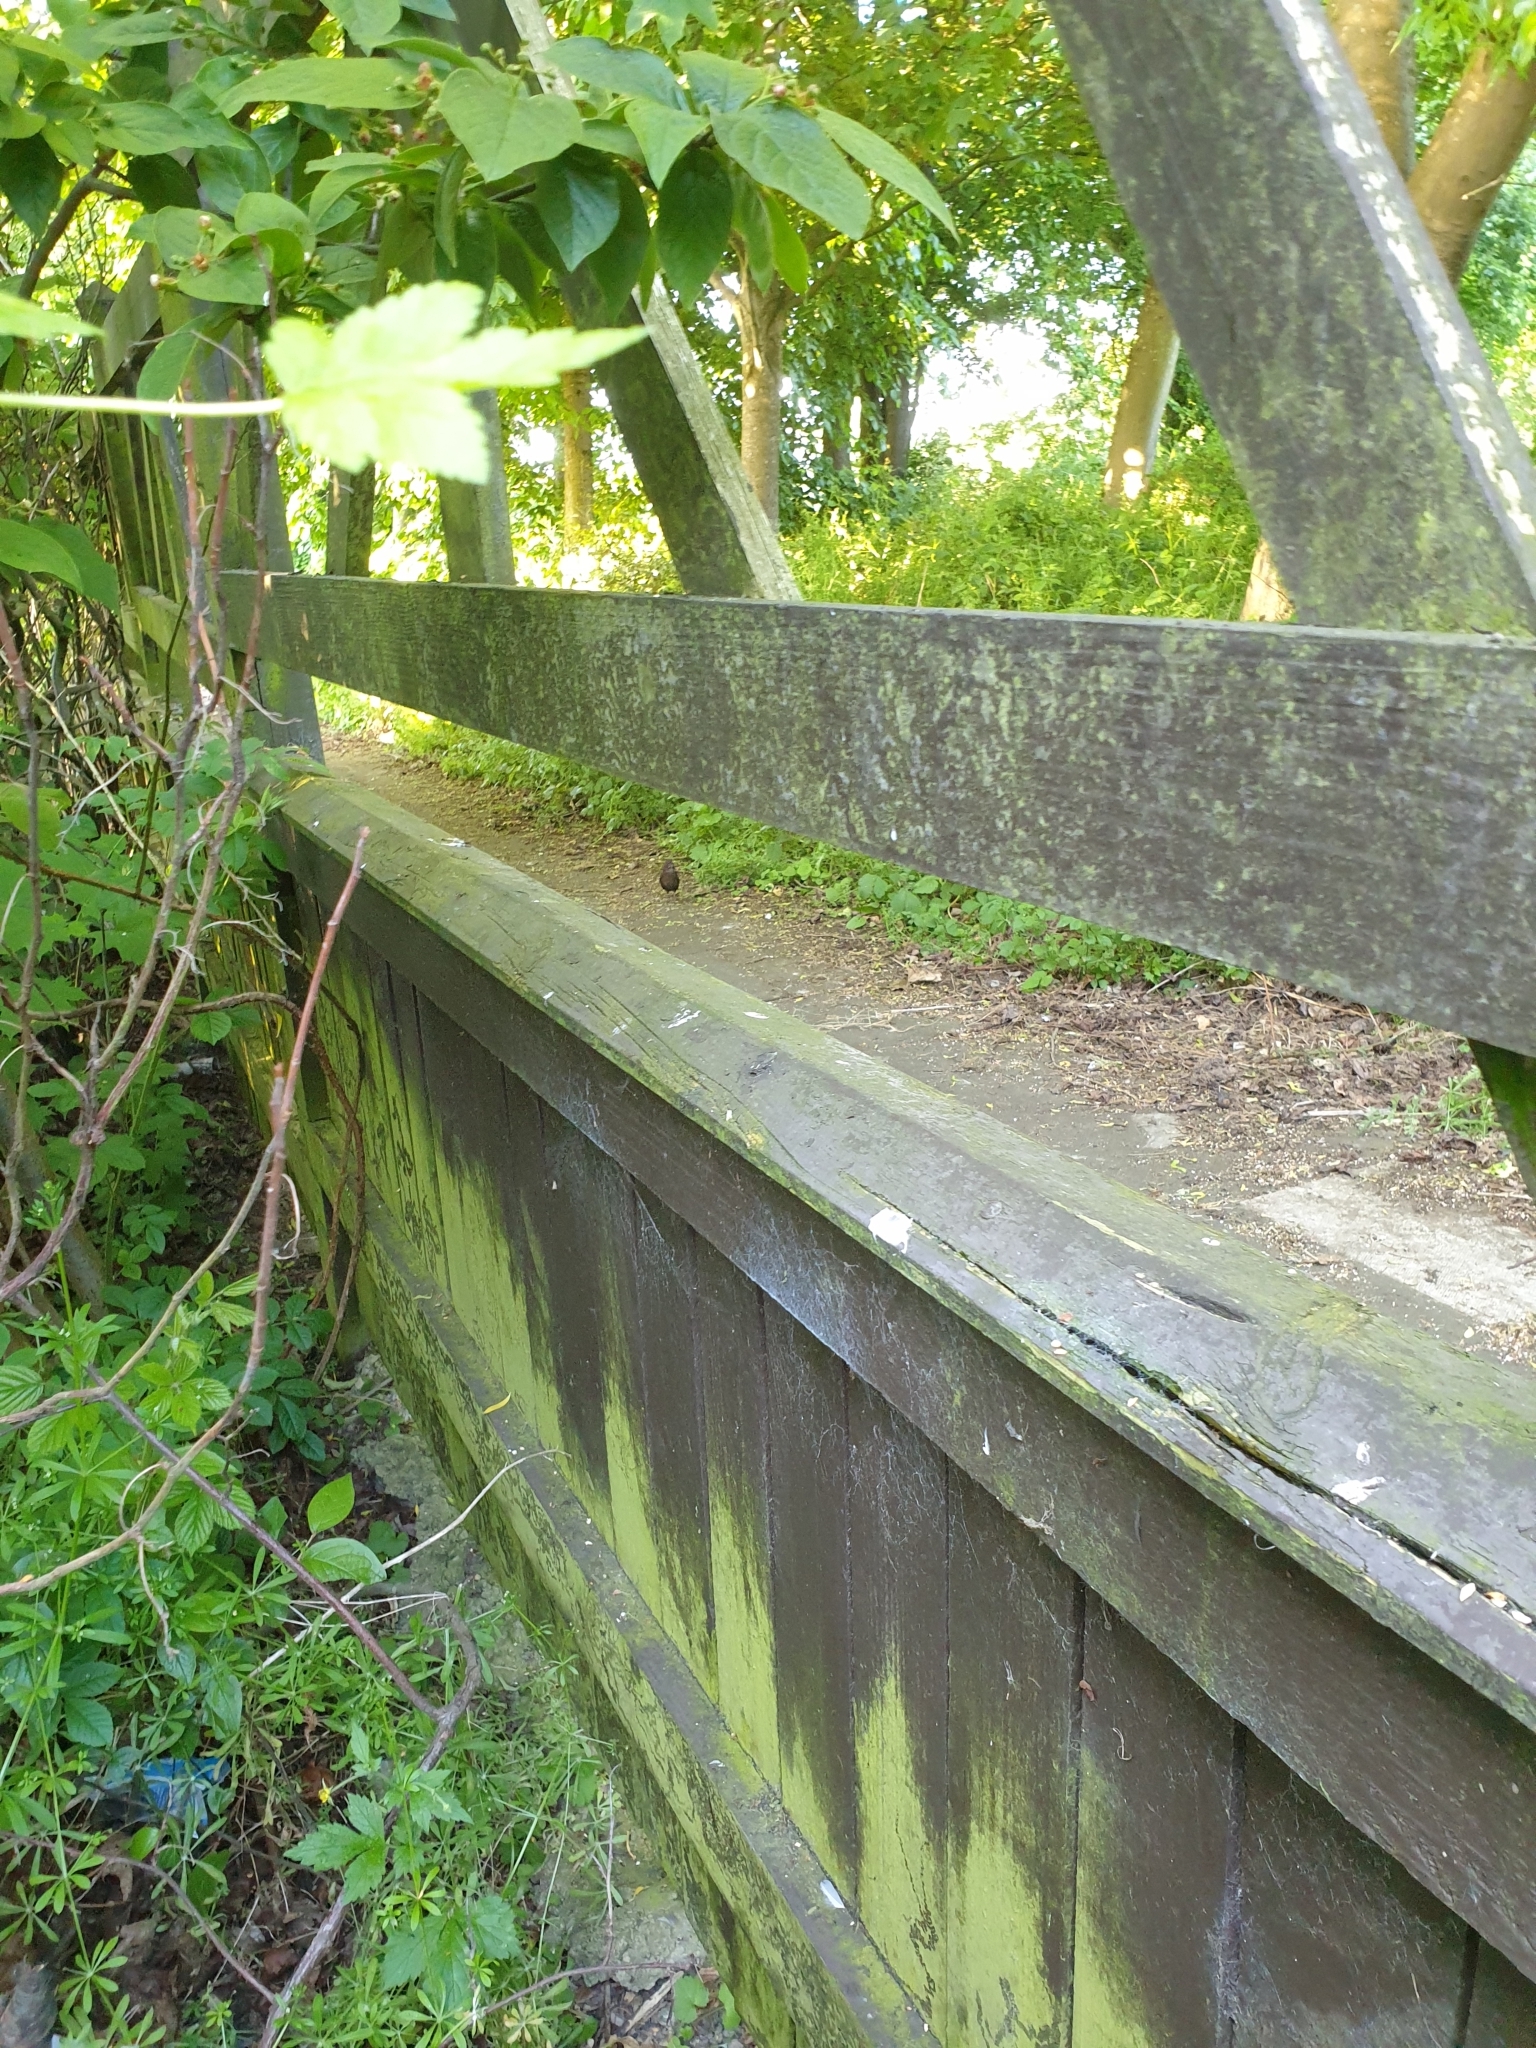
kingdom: Animalia
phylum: Chordata
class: Aves
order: Passeriformes
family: Turdidae
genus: Turdus
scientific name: Turdus merula
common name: Common blackbird
